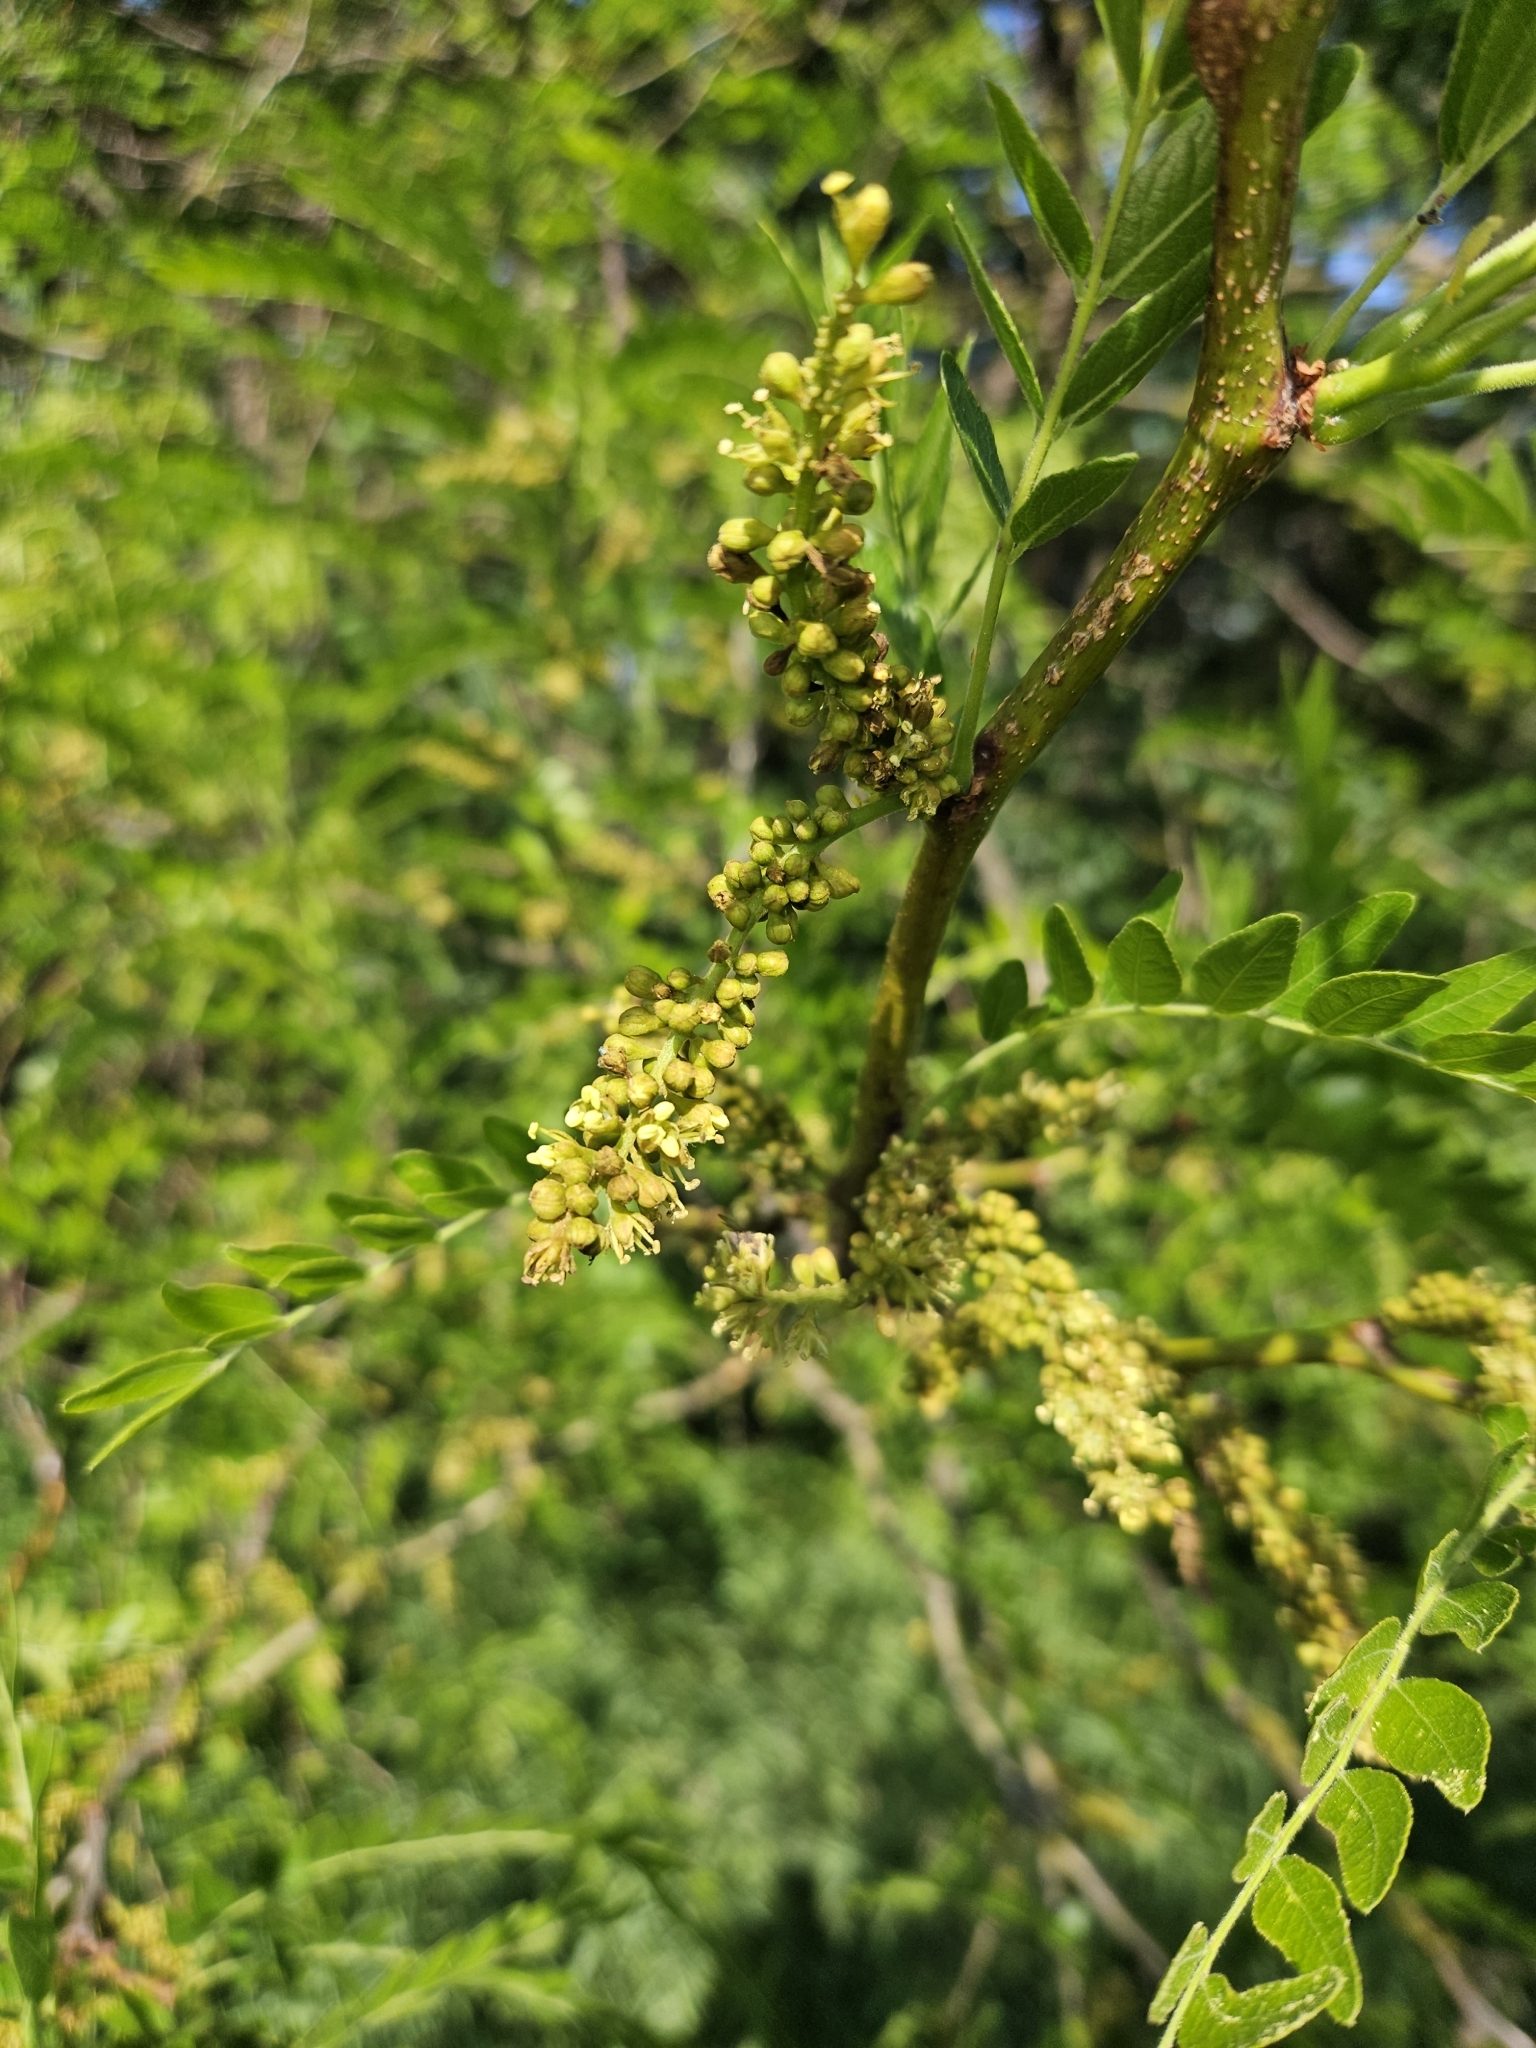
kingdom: Plantae
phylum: Tracheophyta
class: Magnoliopsida
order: Fabales
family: Fabaceae
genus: Gleditsia
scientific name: Gleditsia triacanthos
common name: Common honeylocust
